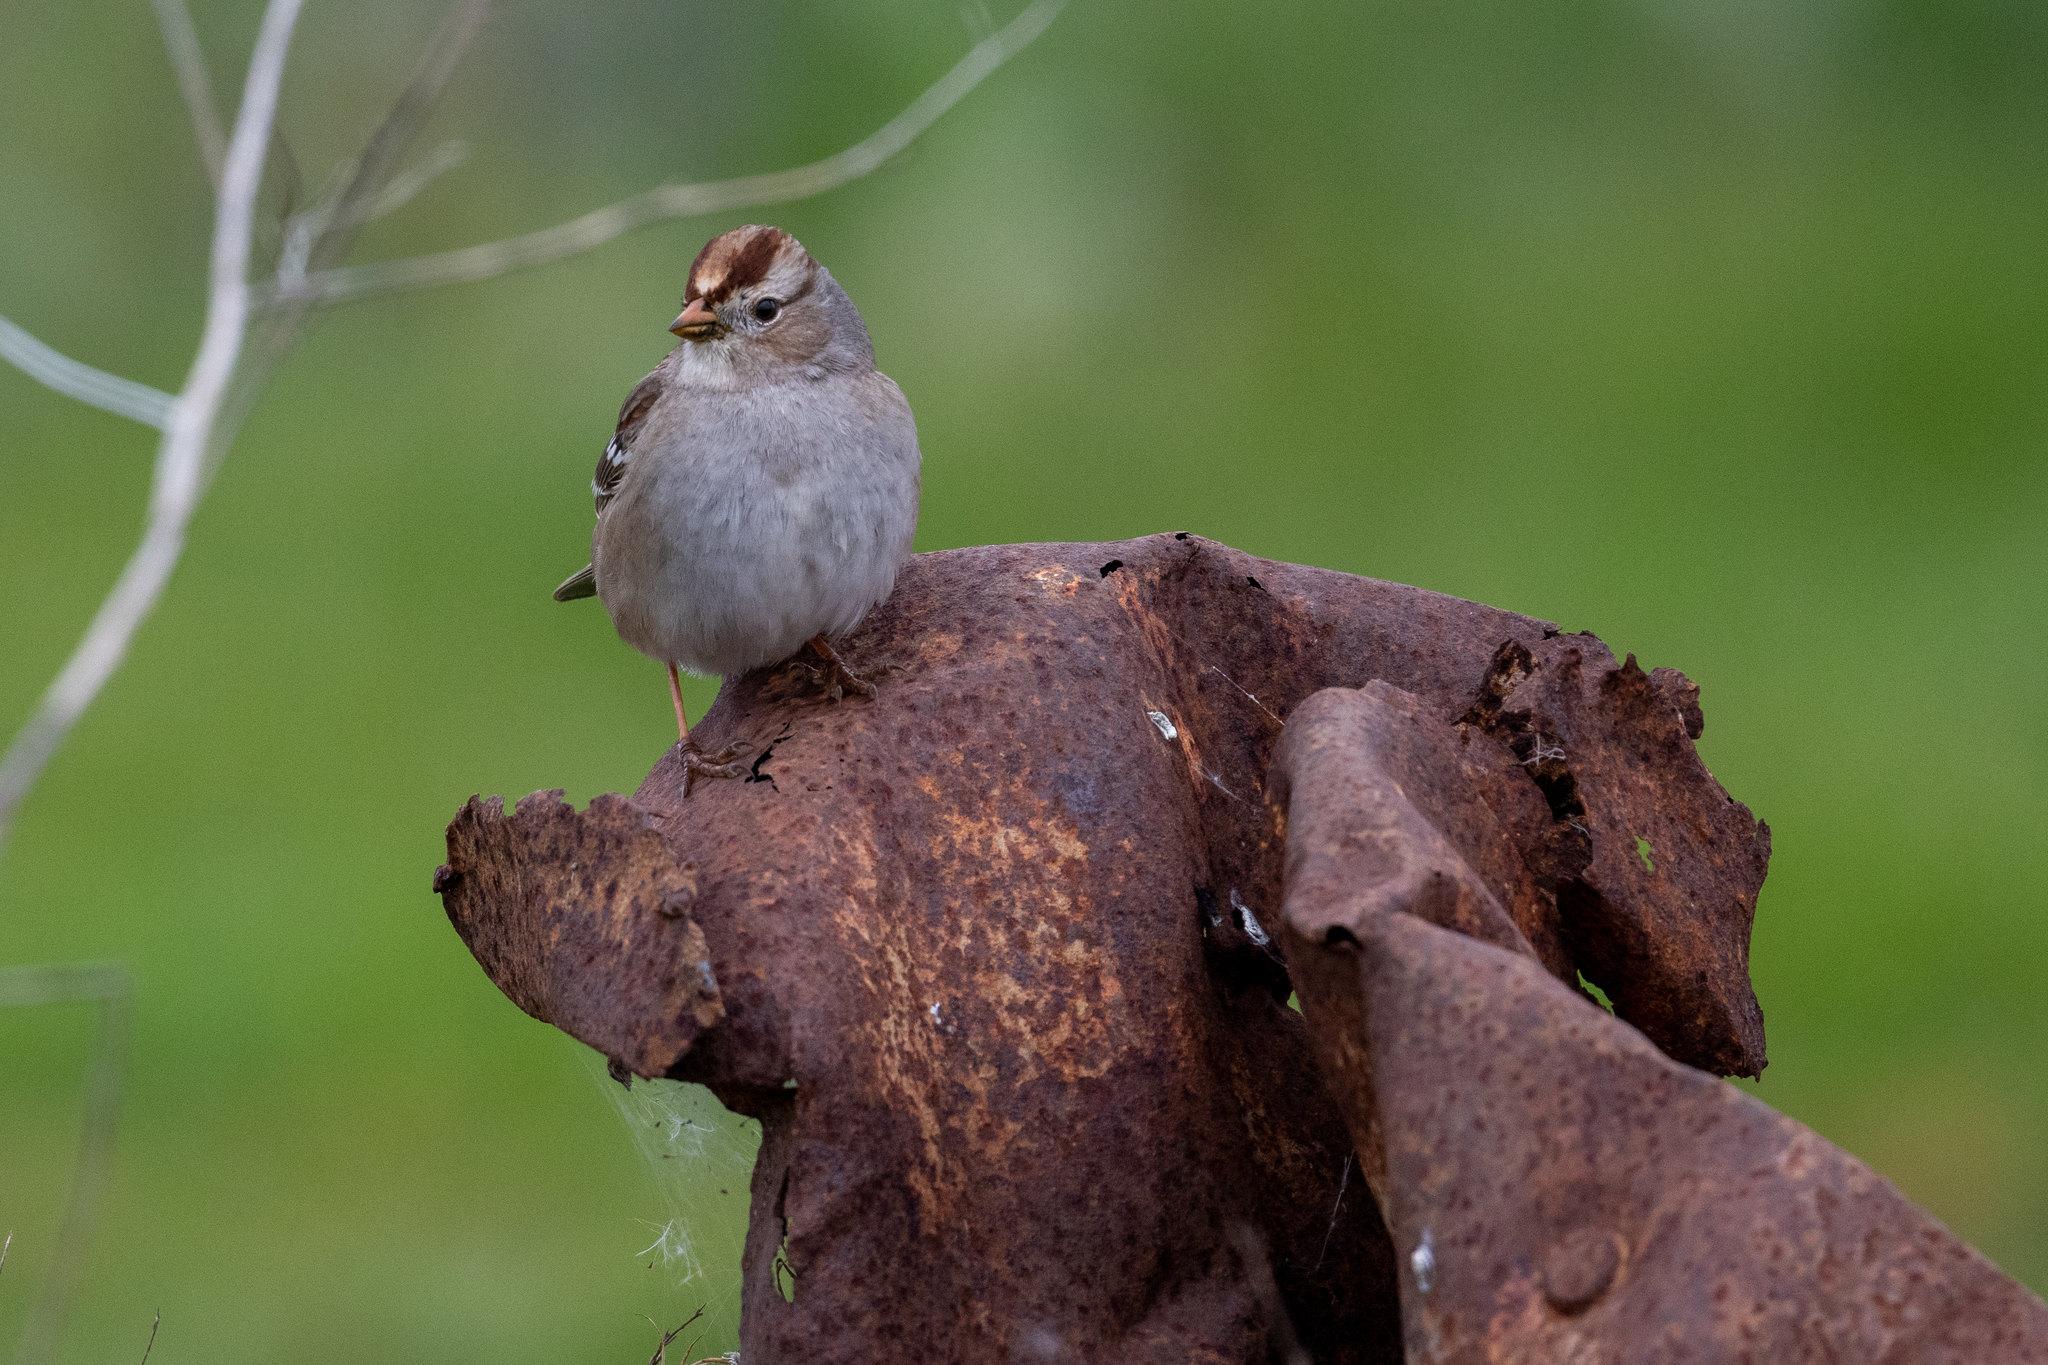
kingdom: Animalia
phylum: Chordata
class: Aves
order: Passeriformes
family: Passerellidae
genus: Zonotrichia
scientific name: Zonotrichia leucophrys
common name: White-crowned sparrow
